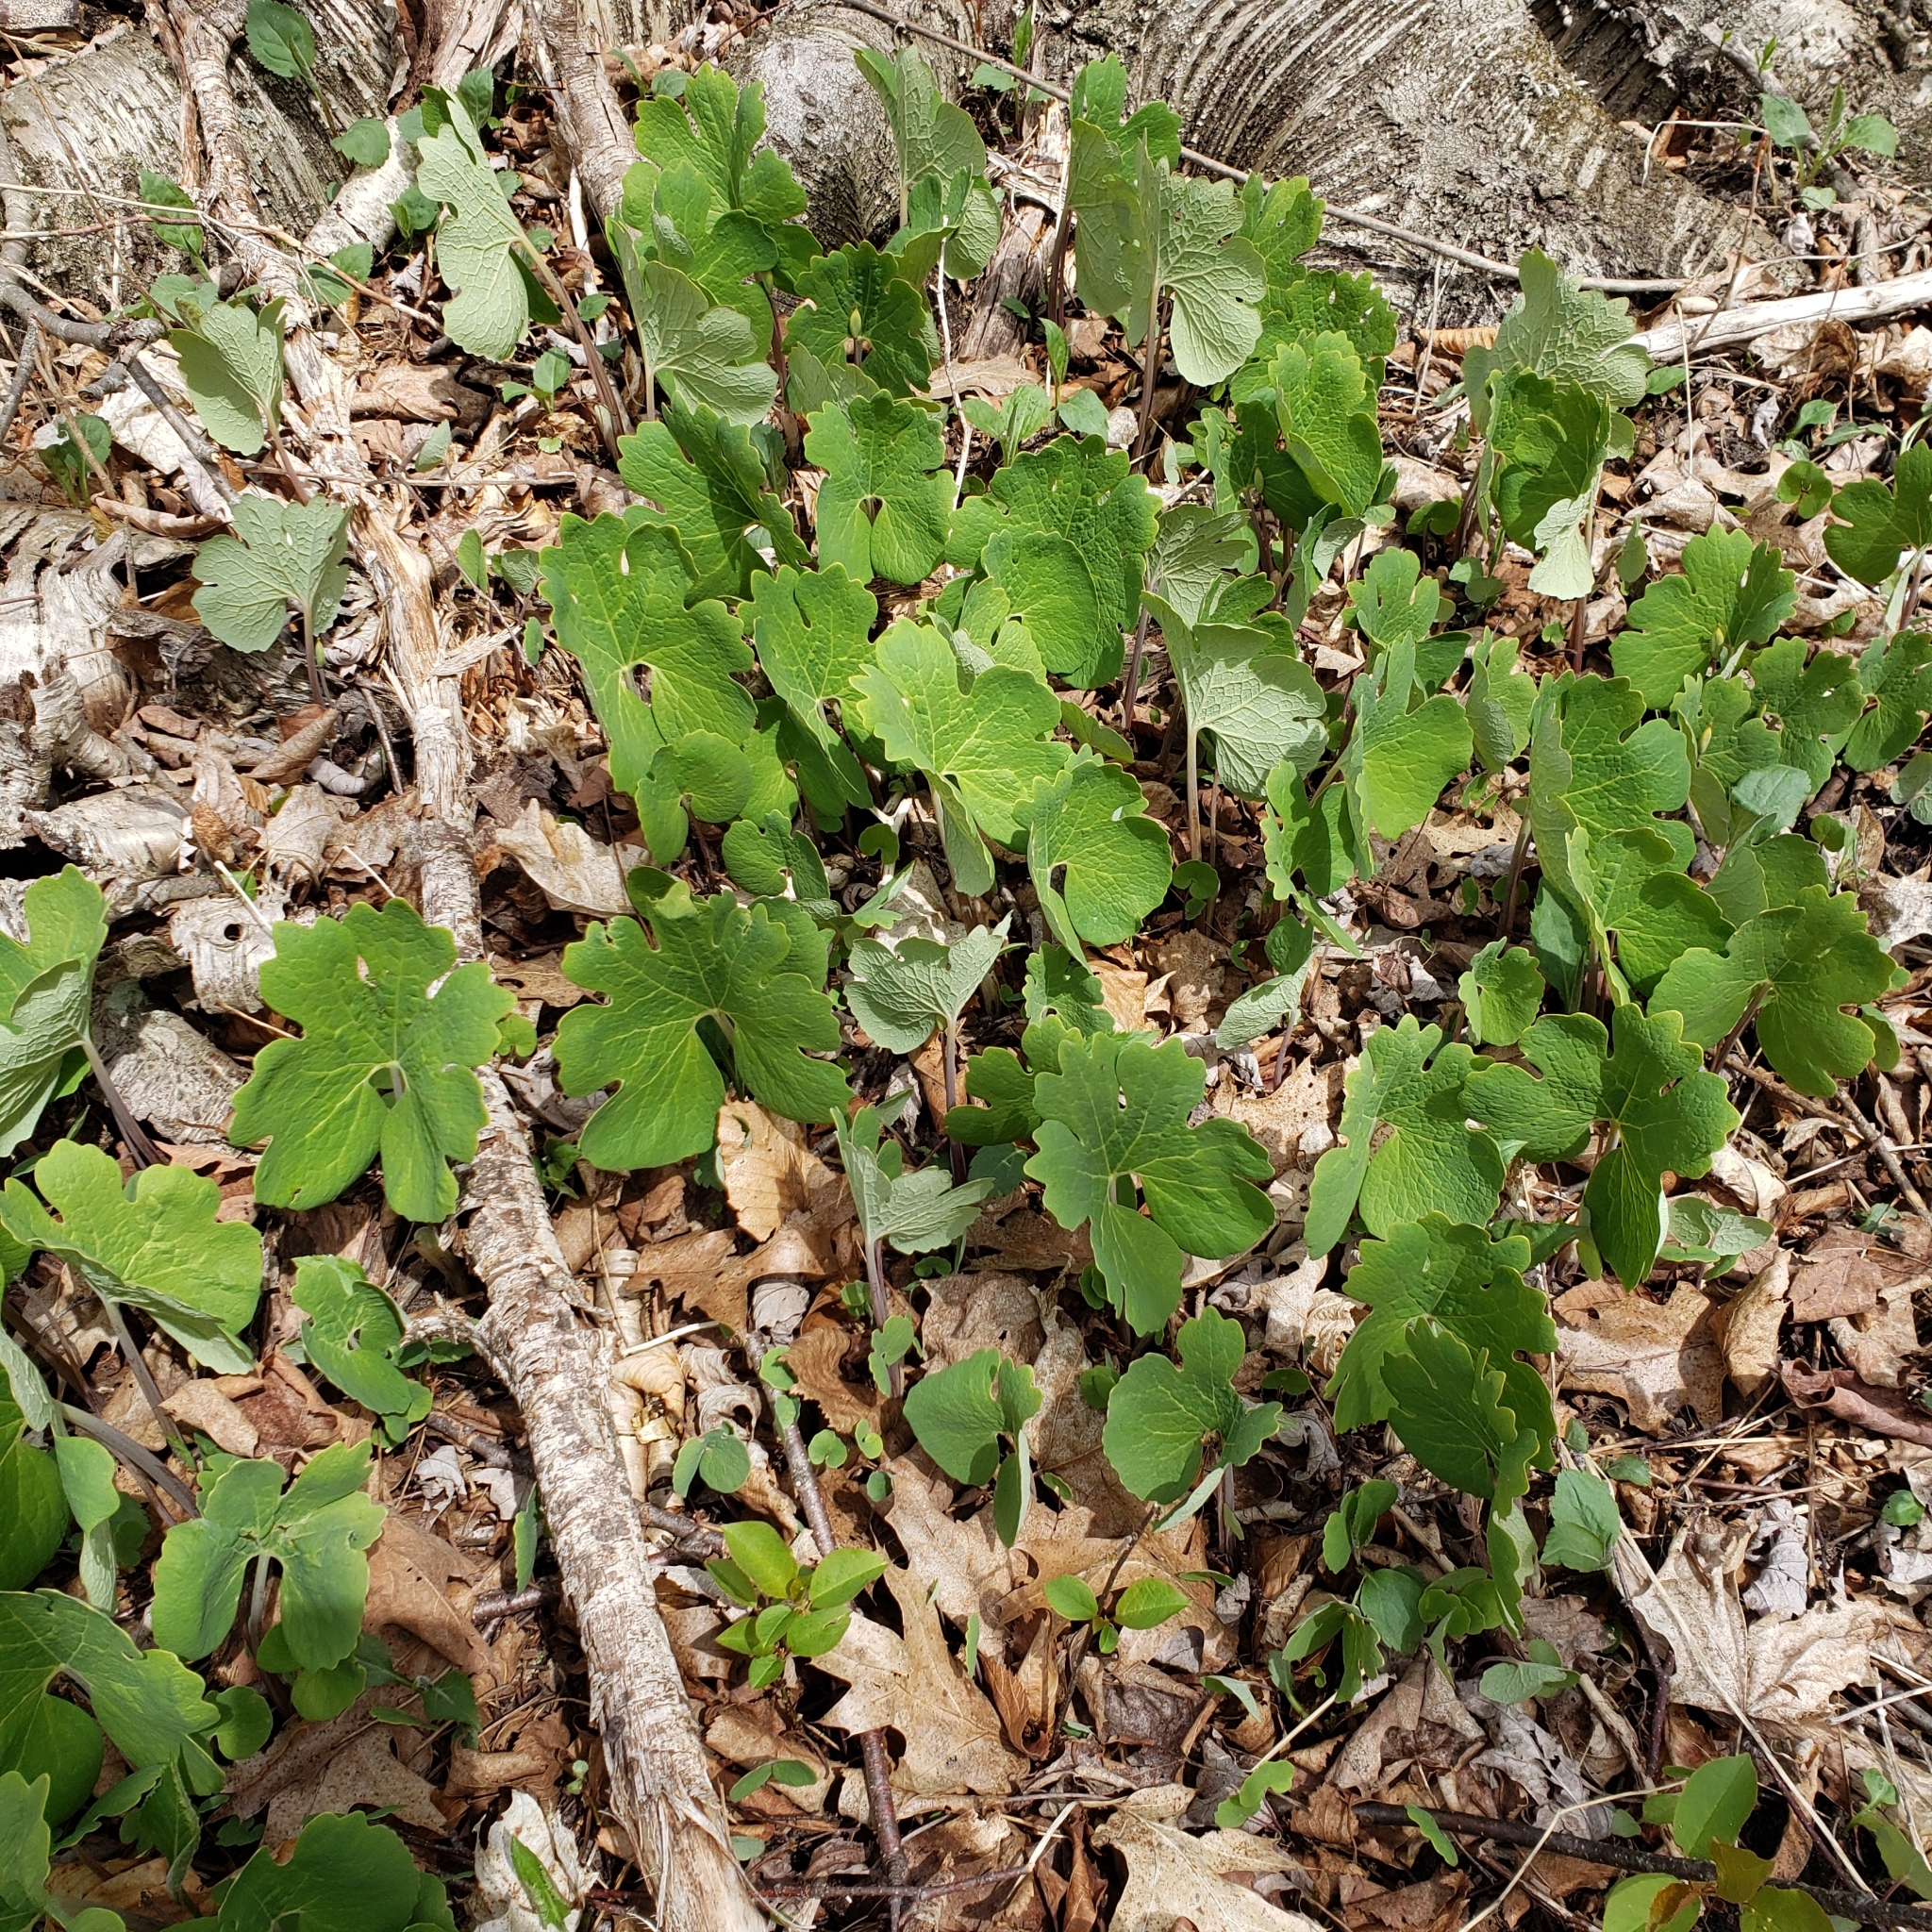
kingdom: Plantae
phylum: Tracheophyta
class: Magnoliopsida
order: Ranunculales
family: Papaveraceae
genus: Sanguinaria
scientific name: Sanguinaria canadensis
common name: Bloodroot
